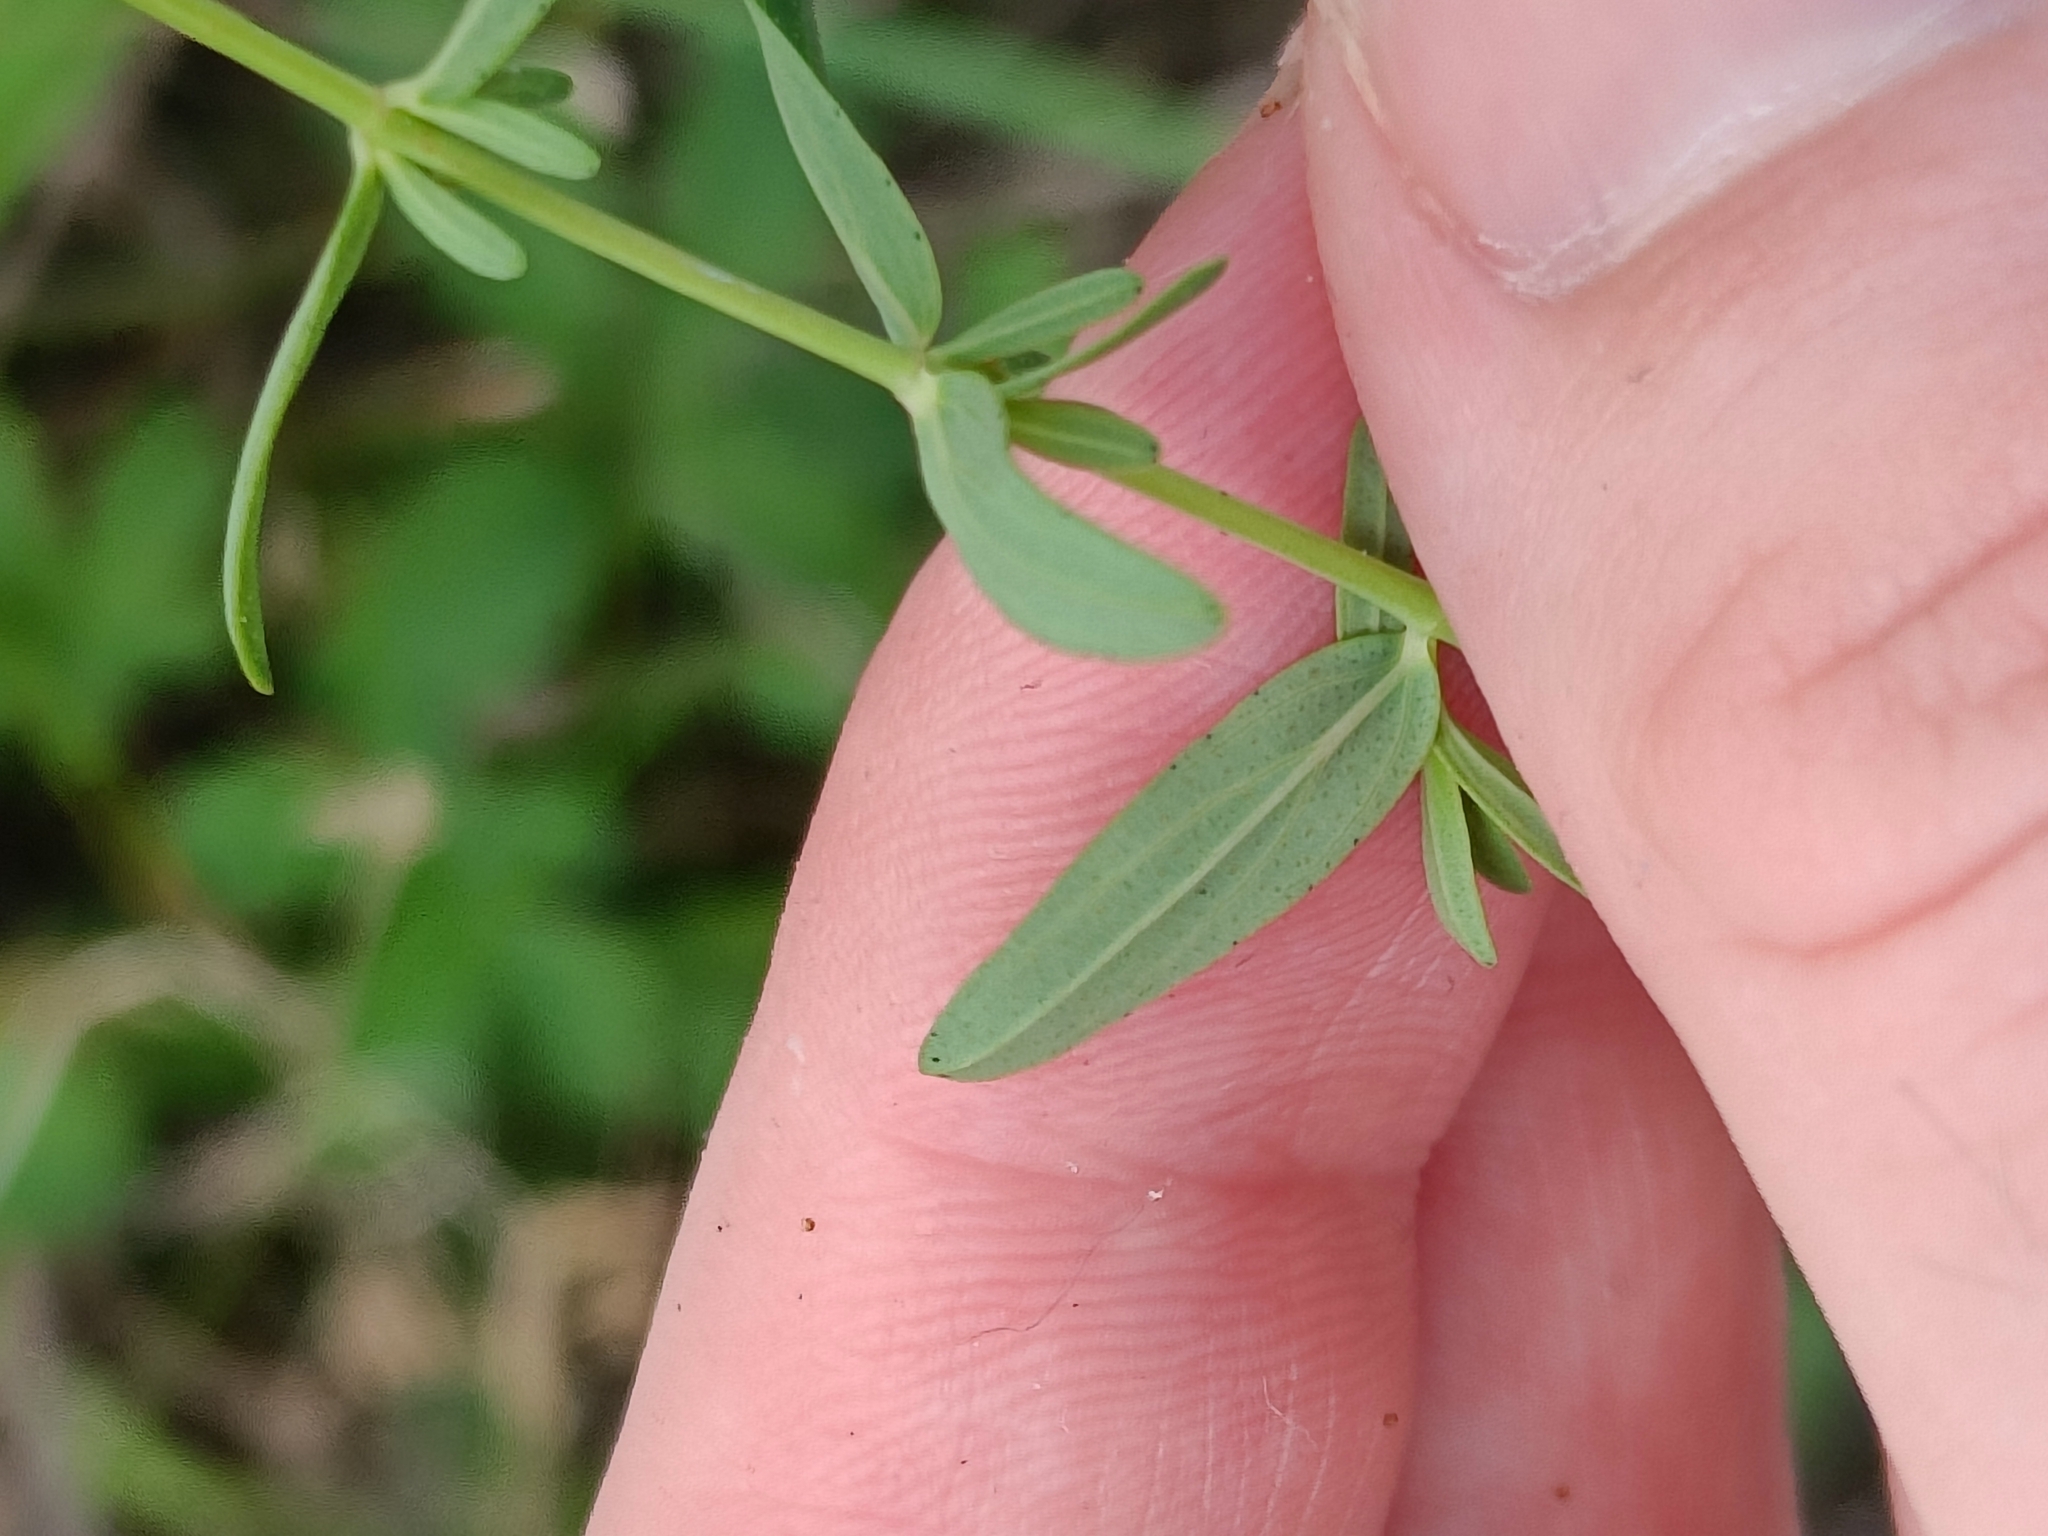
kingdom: Plantae
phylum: Tracheophyta
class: Magnoliopsida
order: Malpighiales
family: Hypericaceae
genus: Hypericum
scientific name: Hypericum perforatum
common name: Common st. johnswort
